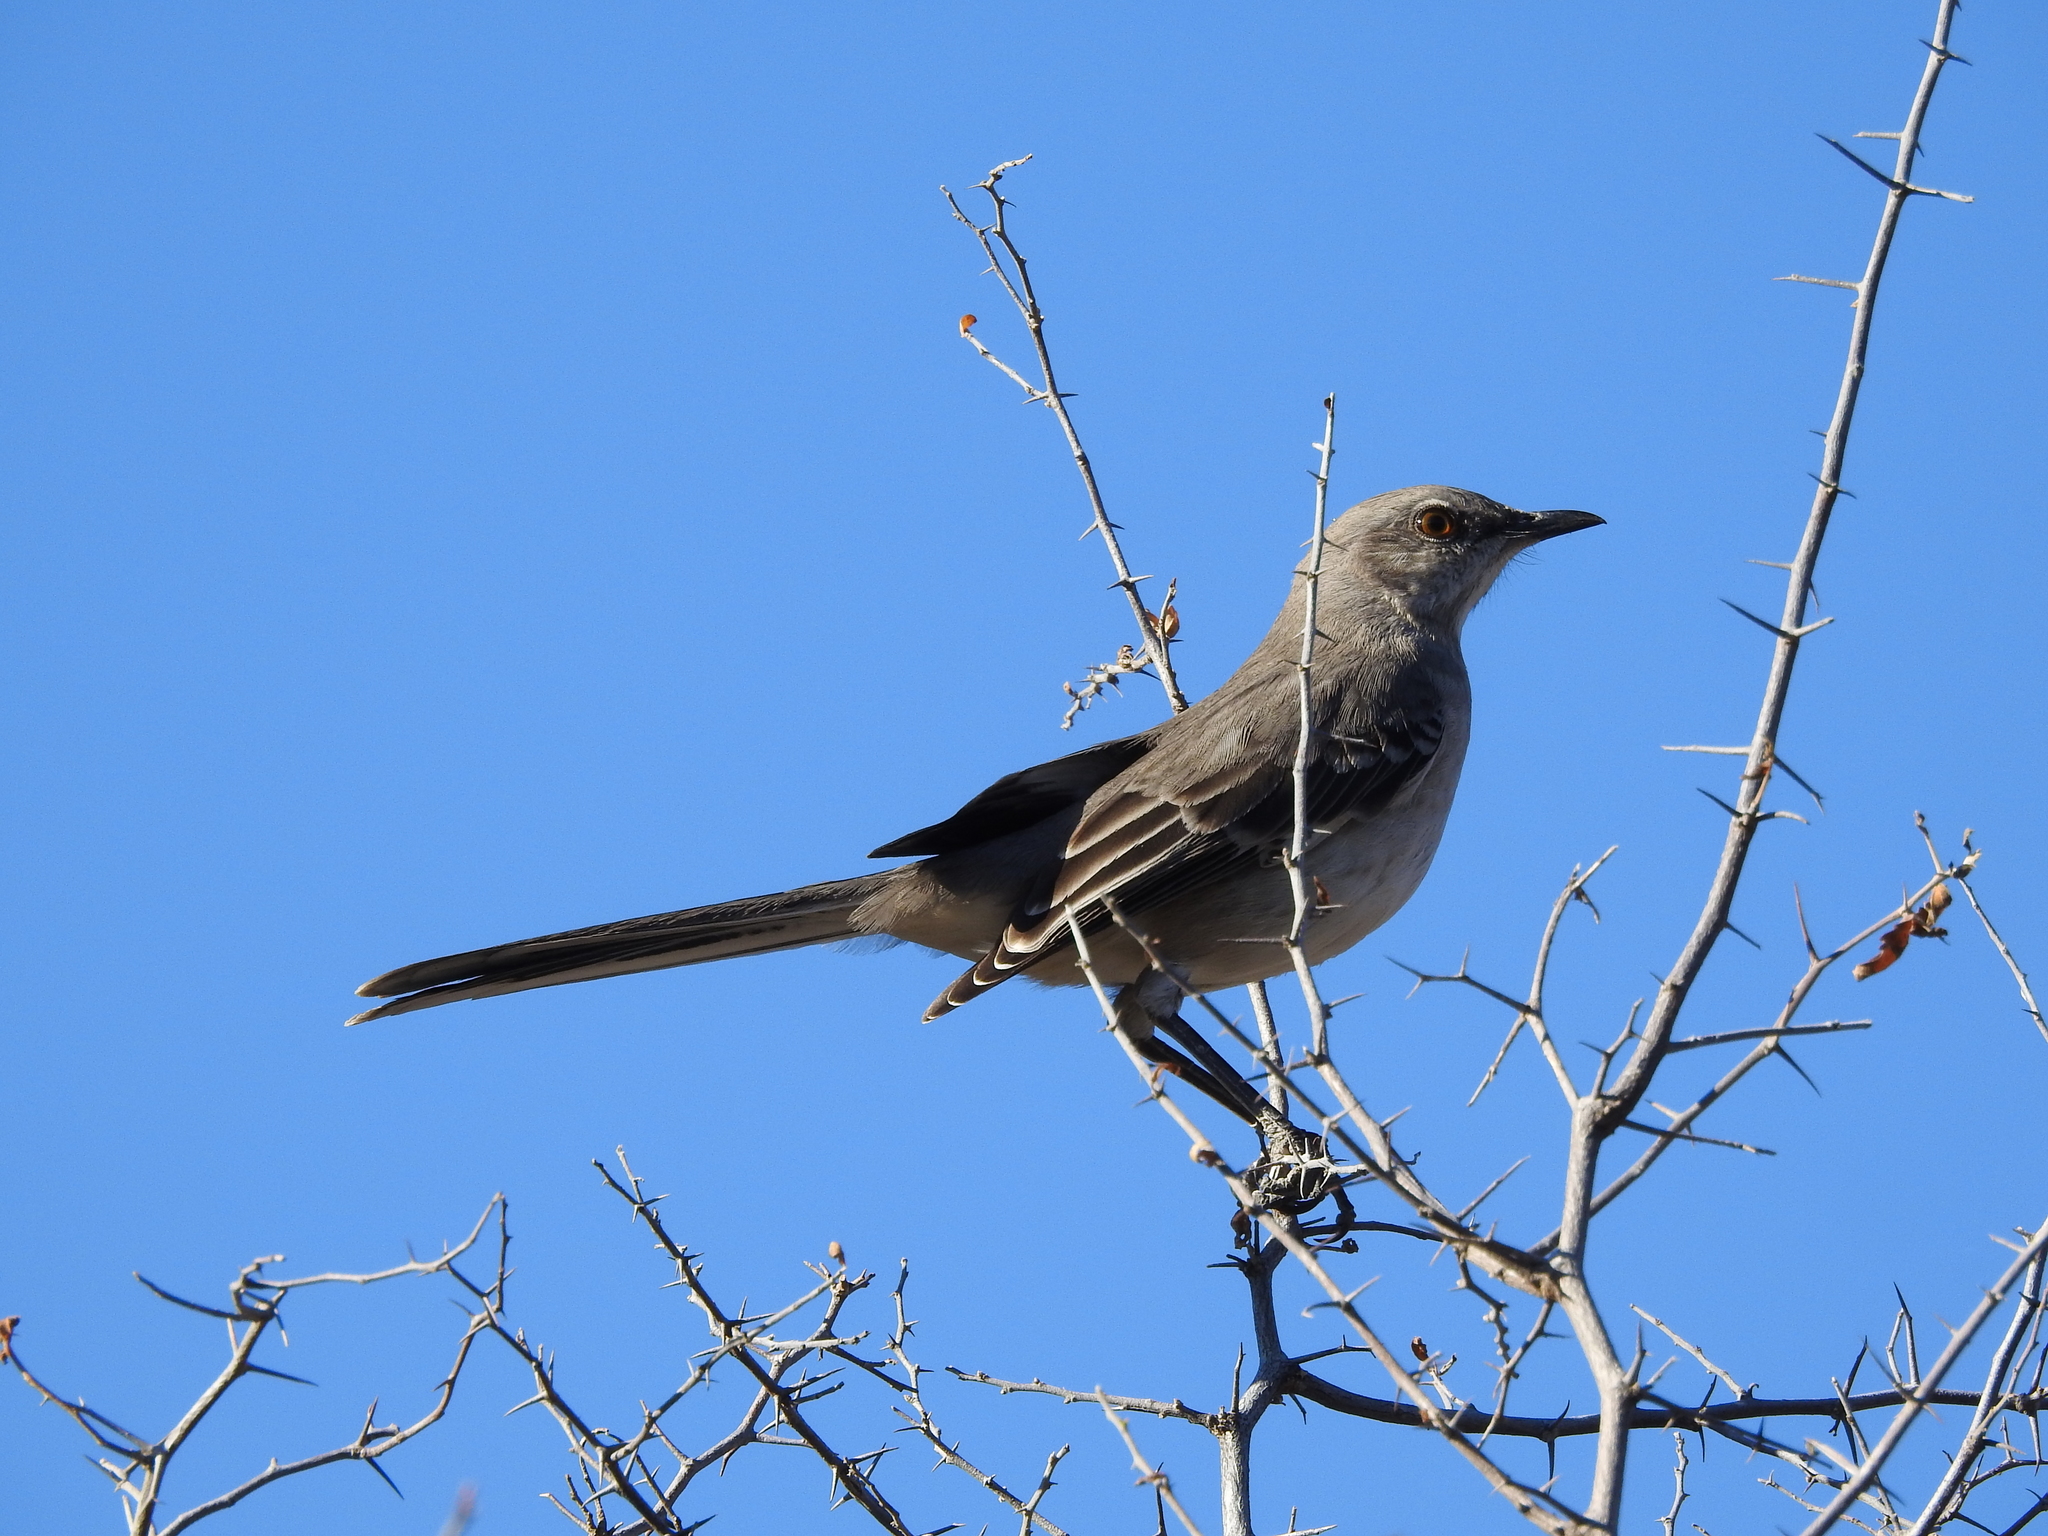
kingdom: Animalia
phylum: Chordata
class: Aves
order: Passeriformes
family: Mimidae
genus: Mimus
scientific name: Mimus polyglottos
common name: Northern mockingbird
